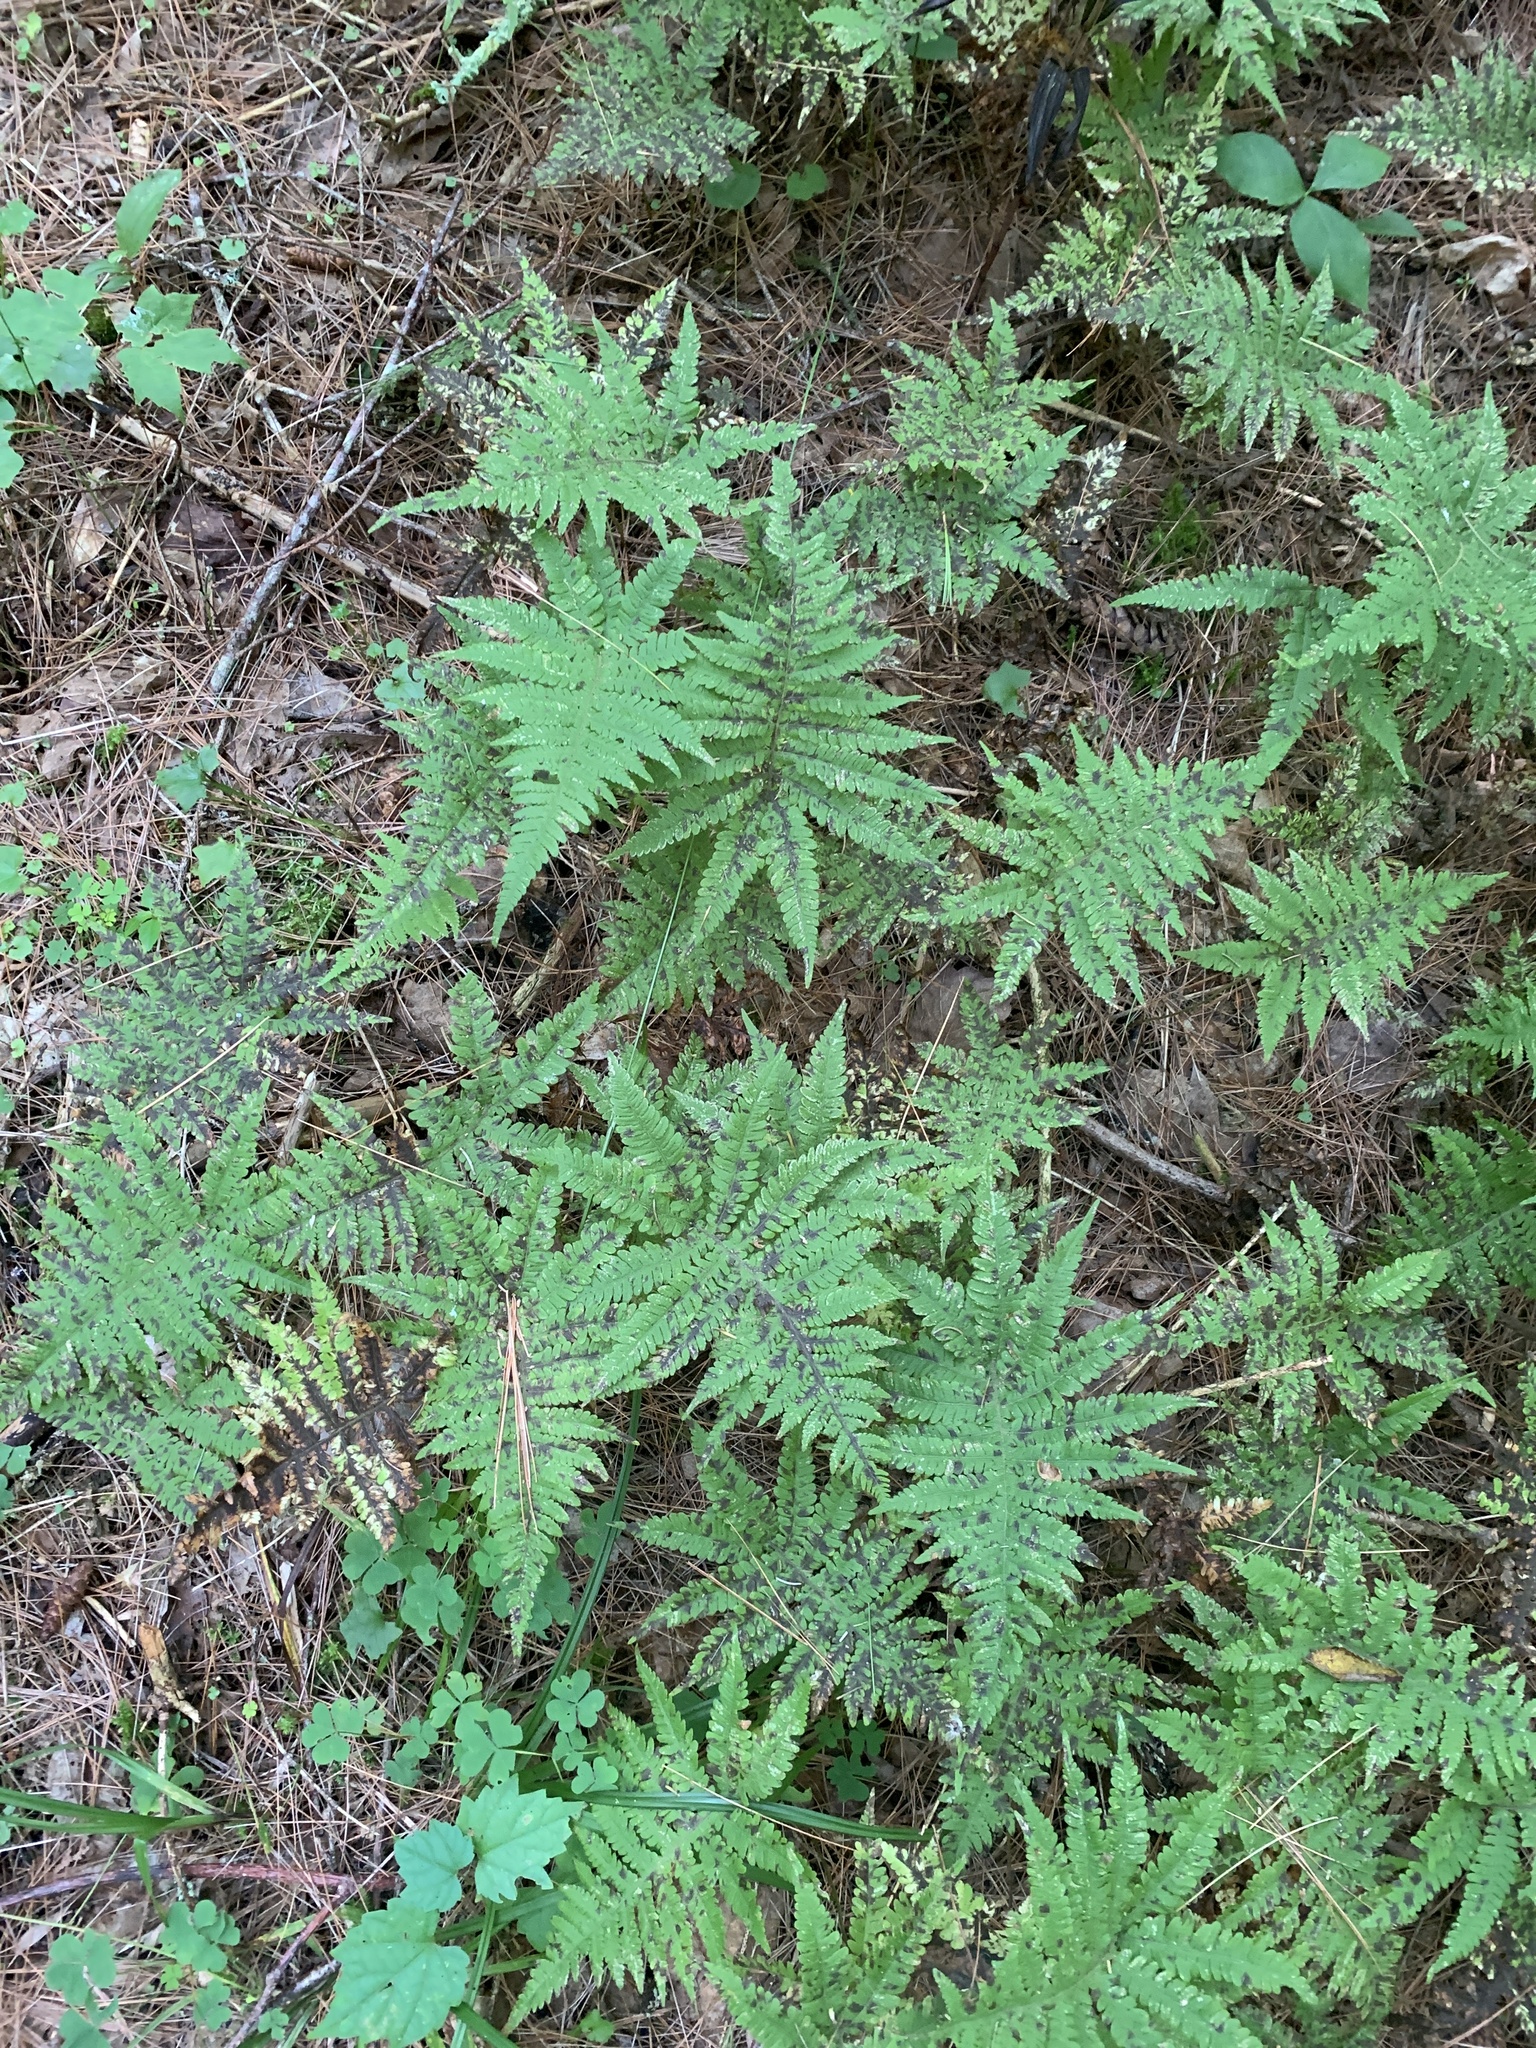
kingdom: Plantae
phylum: Tracheophyta
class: Polypodiopsida
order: Polypodiales
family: Thelypteridaceae
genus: Phegopteris
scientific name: Phegopteris connectilis
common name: Beech fern
